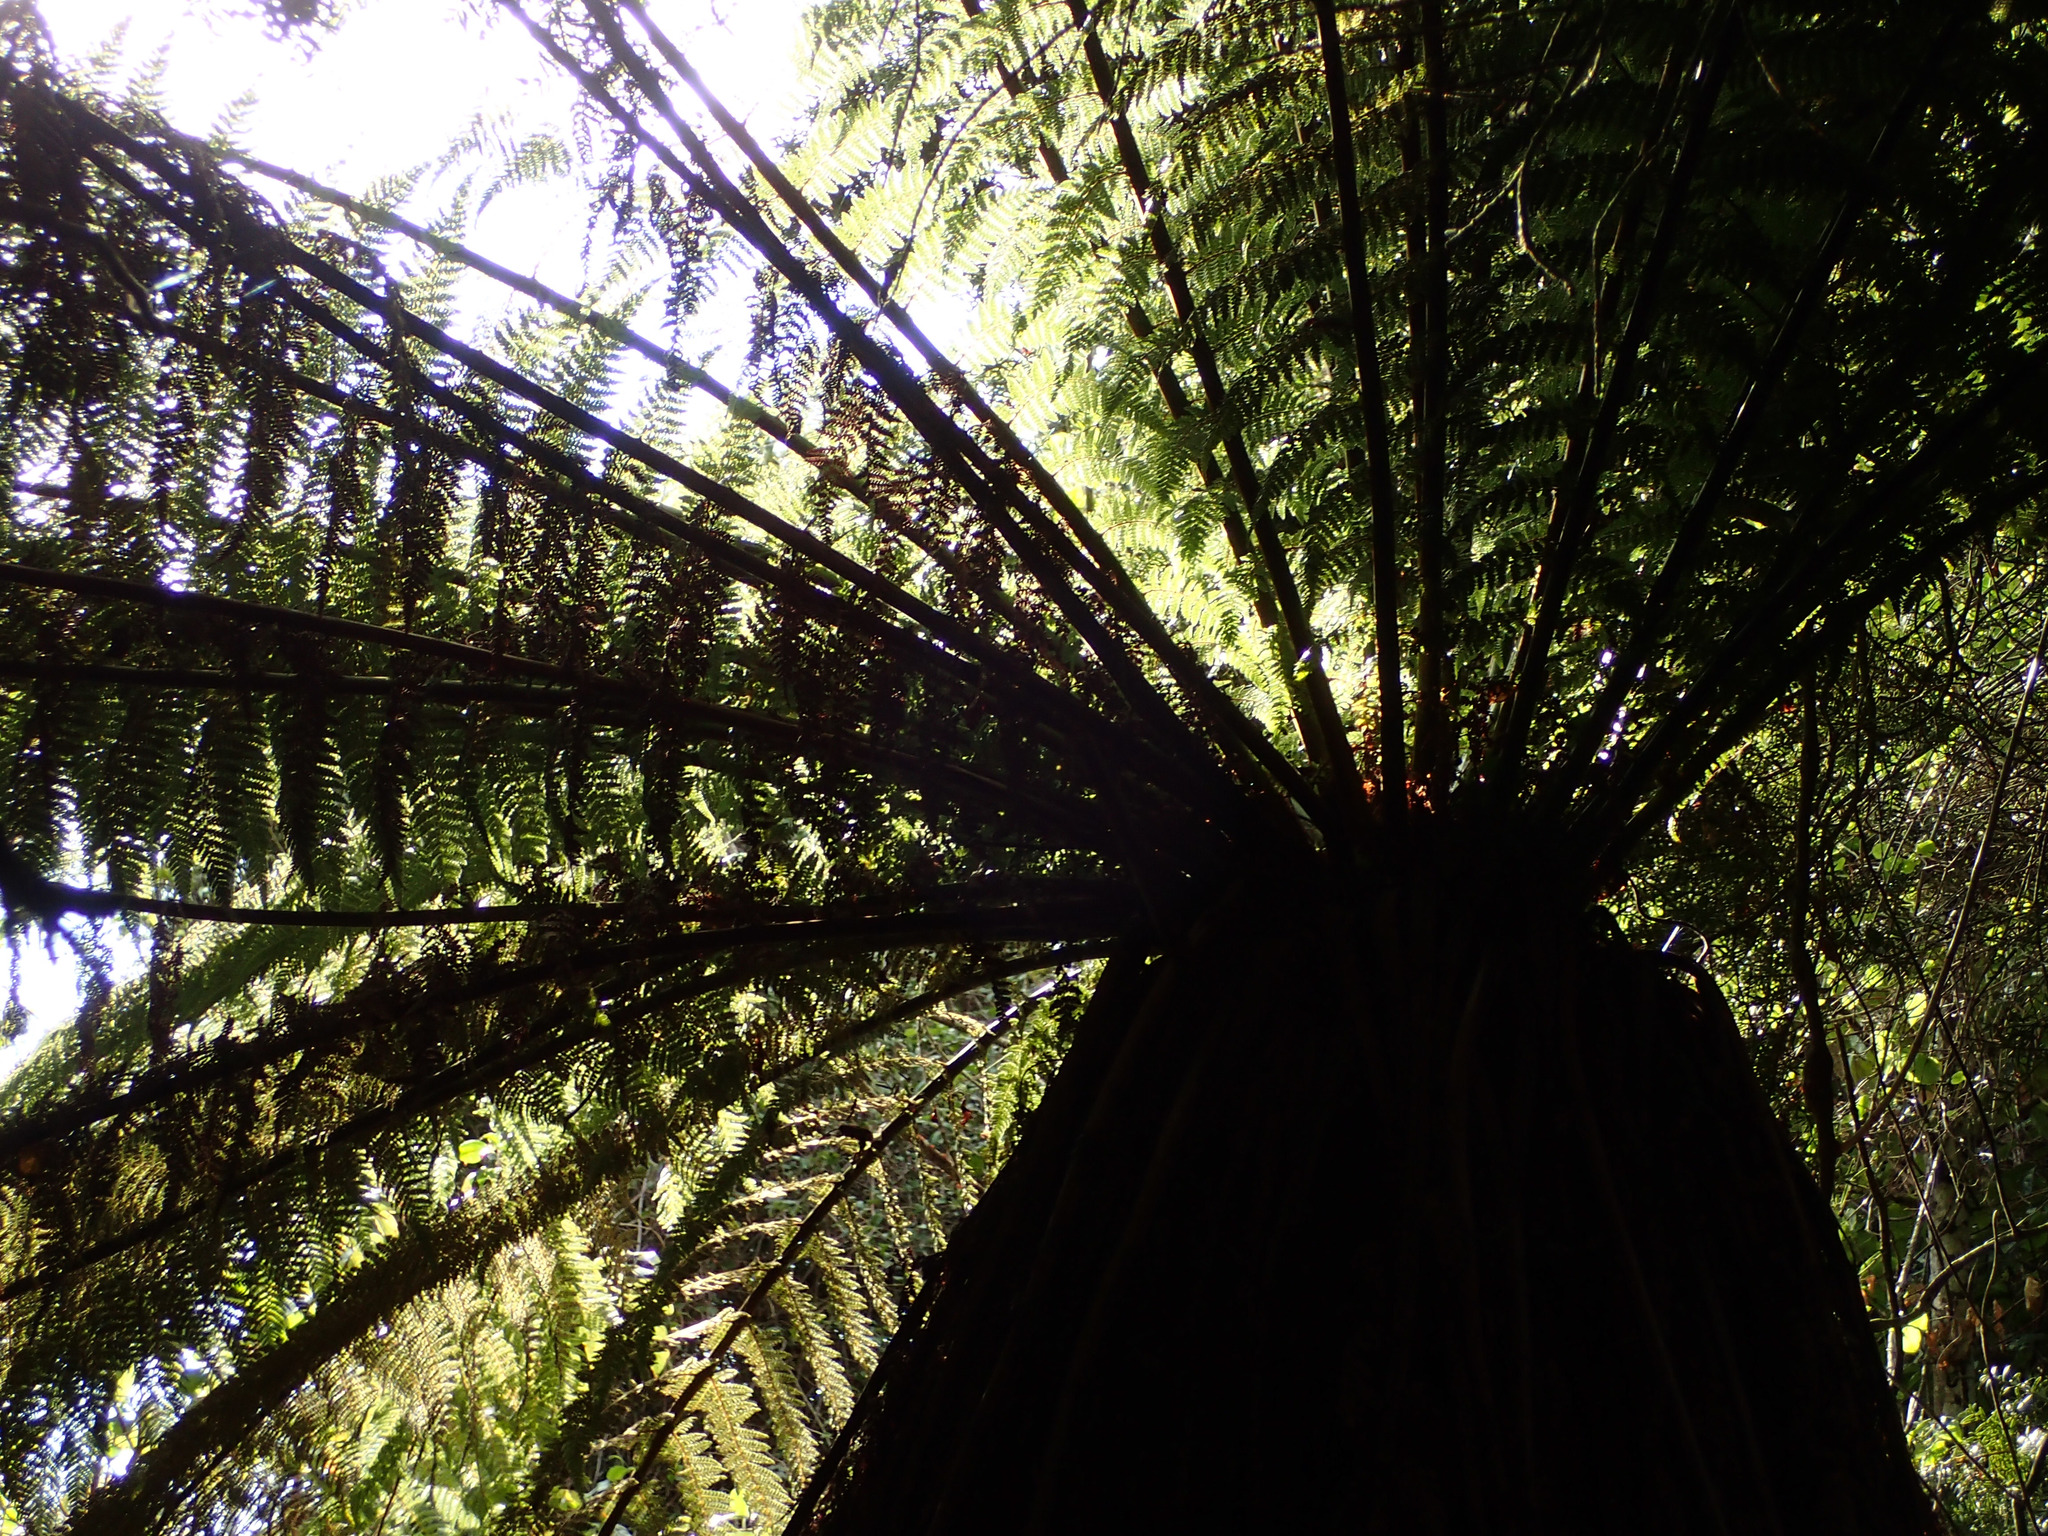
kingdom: Plantae
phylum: Tracheophyta
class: Polypodiopsida
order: Cyatheales
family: Dicksoniaceae
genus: Dicksonia
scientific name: Dicksonia fibrosa
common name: Golden tree fern
